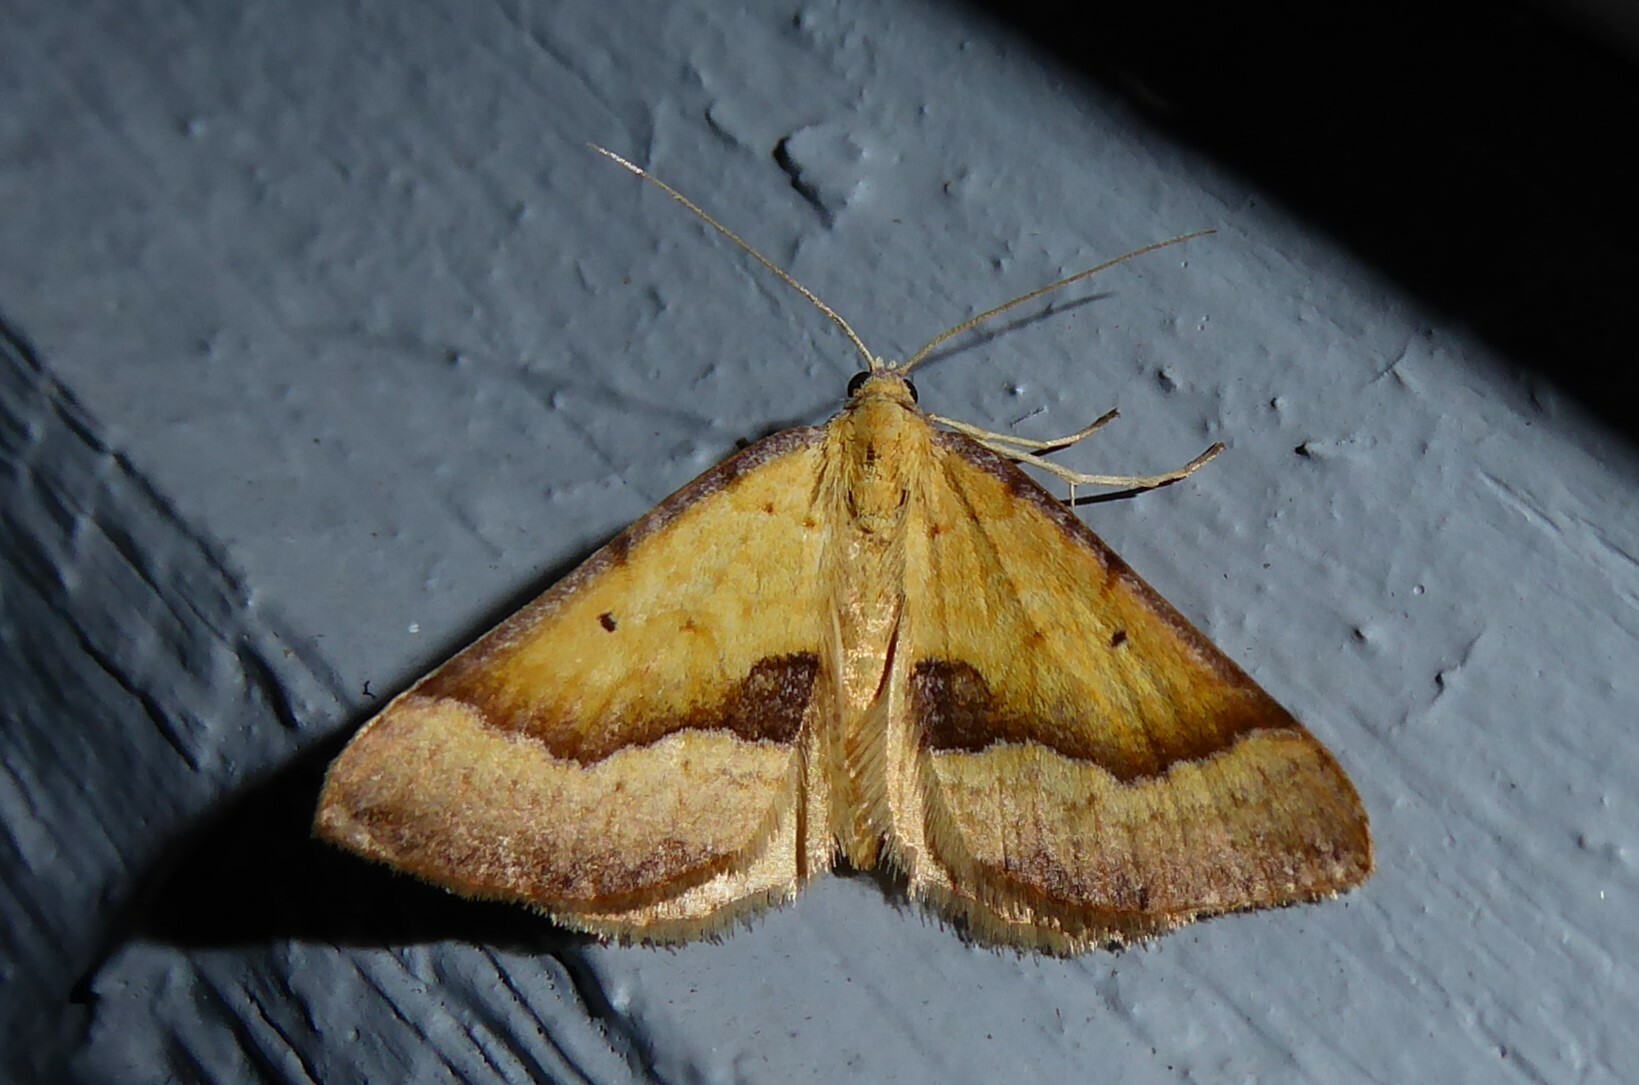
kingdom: Animalia
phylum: Arthropoda
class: Insecta
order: Lepidoptera
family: Geometridae
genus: Anachloris
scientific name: Anachloris subochraria
